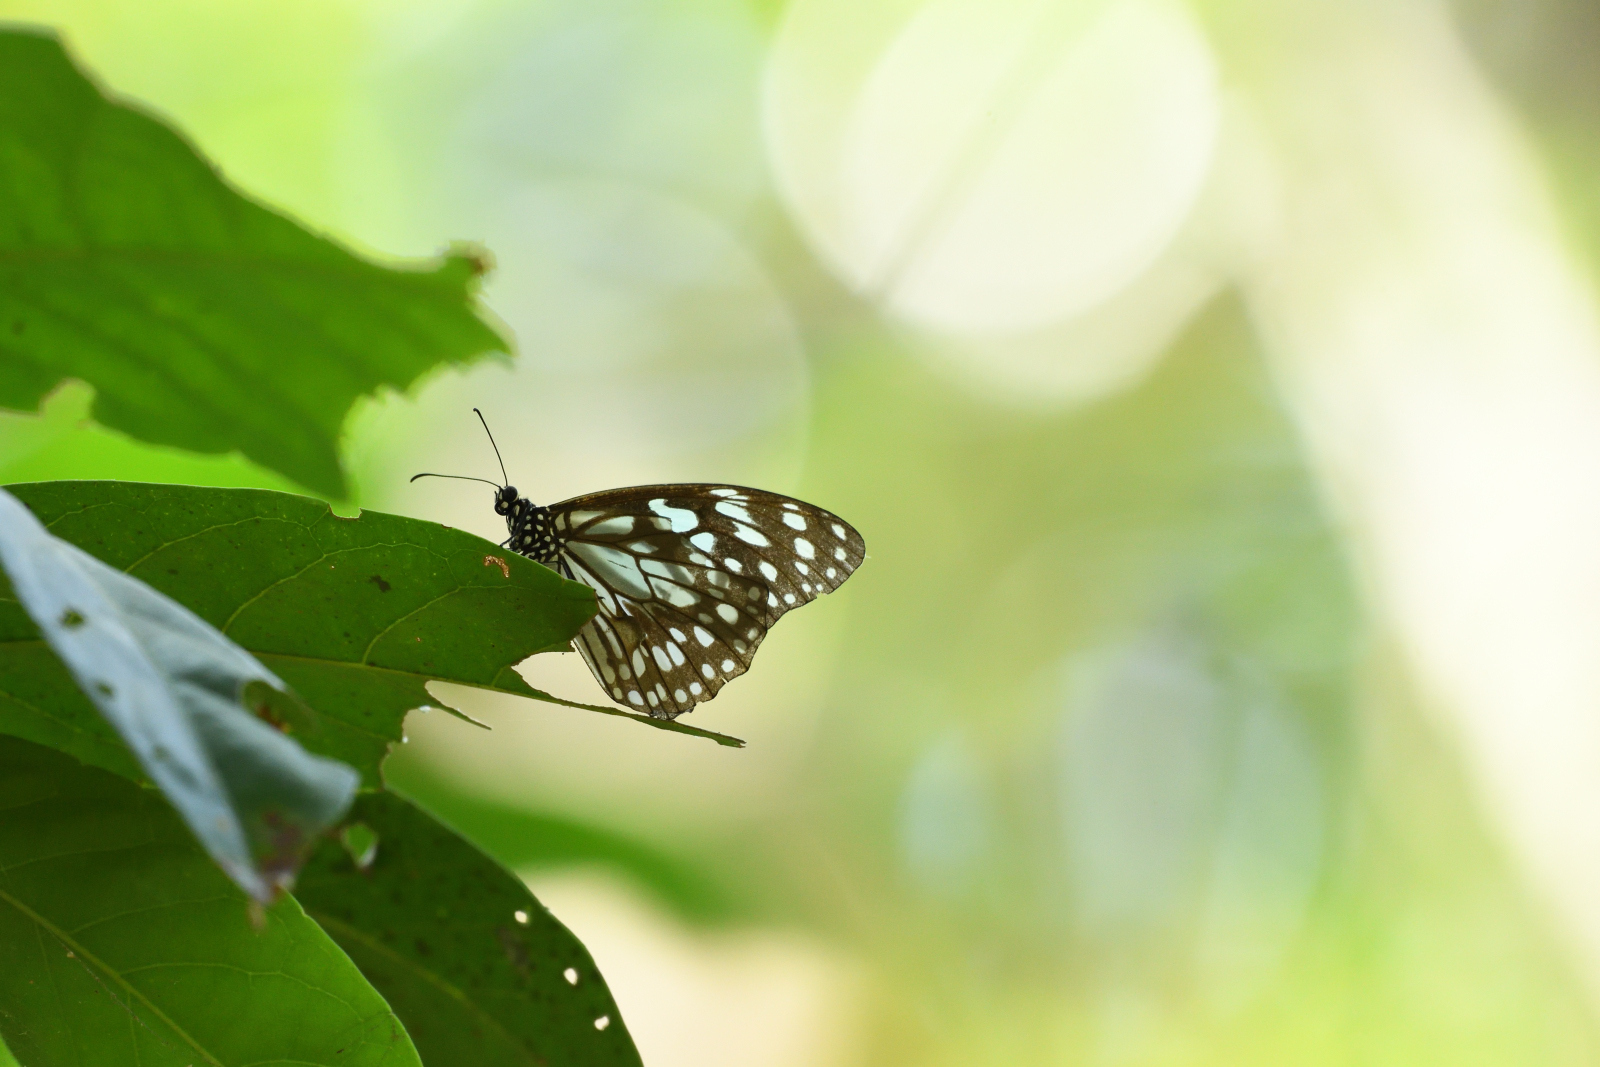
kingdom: Animalia
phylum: Arthropoda
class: Insecta
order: Lepidoptera
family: Nymphalidae
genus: Tirumala
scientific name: Tirumala limniace
